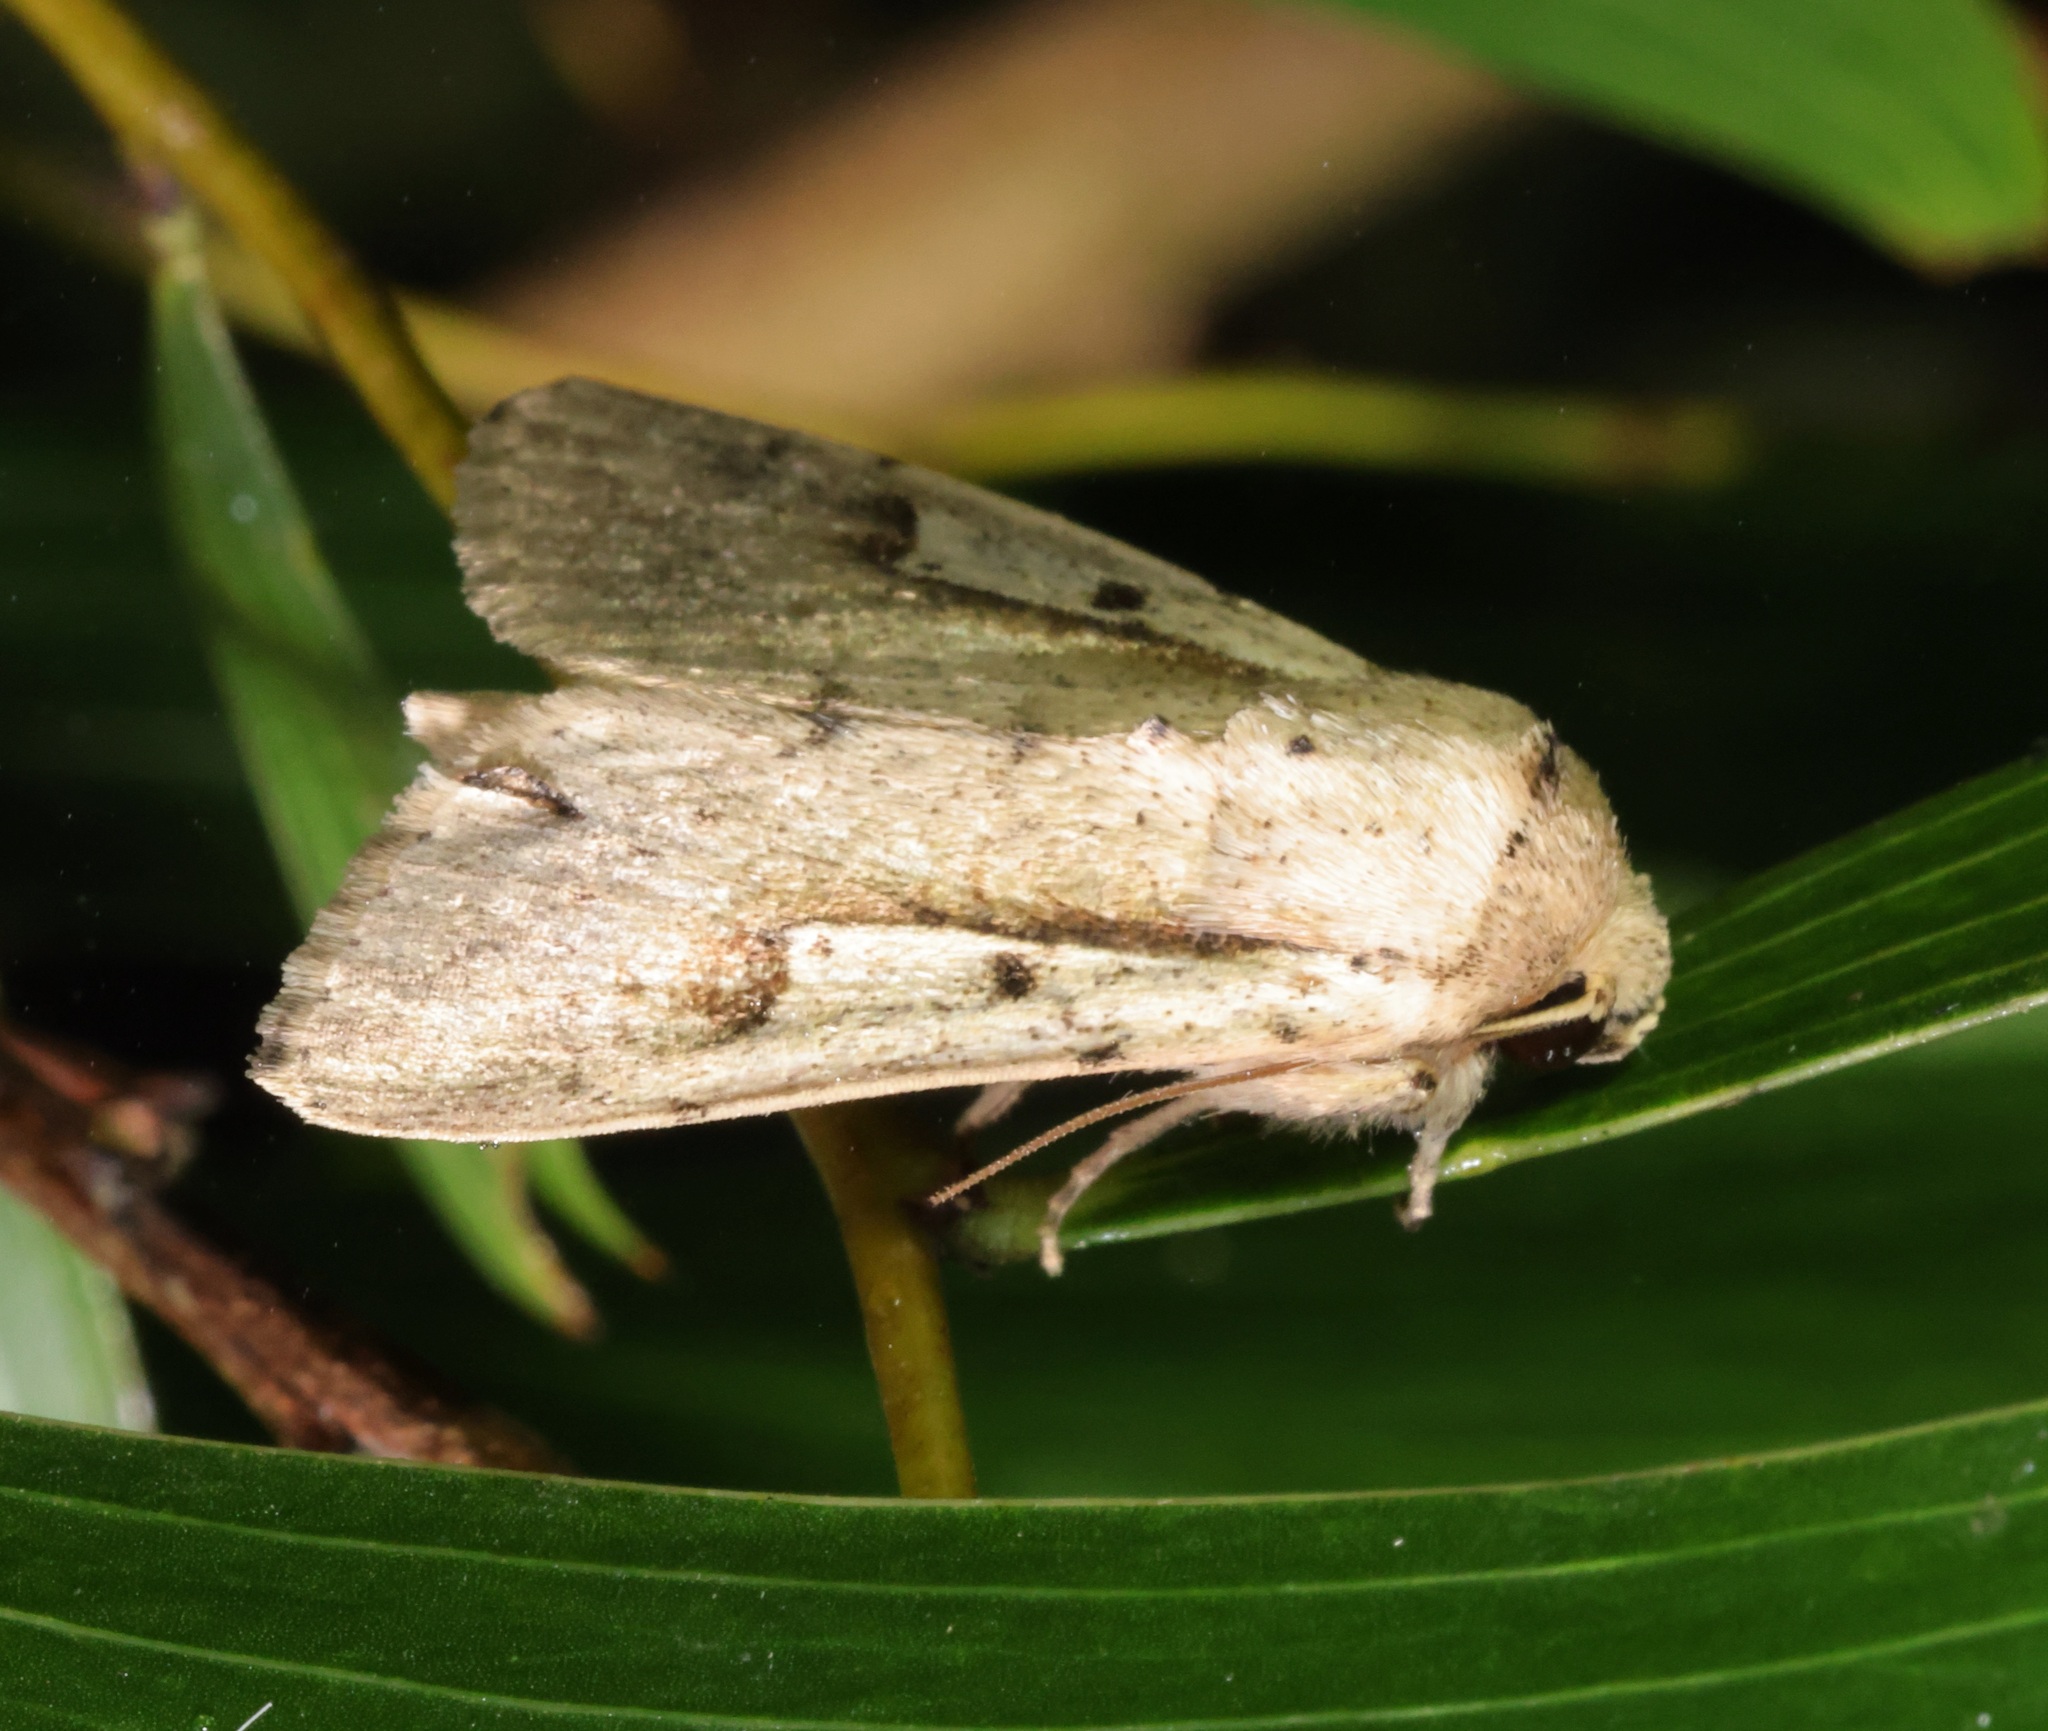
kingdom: Animalia
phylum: Arthropoda
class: Insecta
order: Lepidoptera
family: Noctuidae
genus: Leucania
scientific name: Leucania yu
